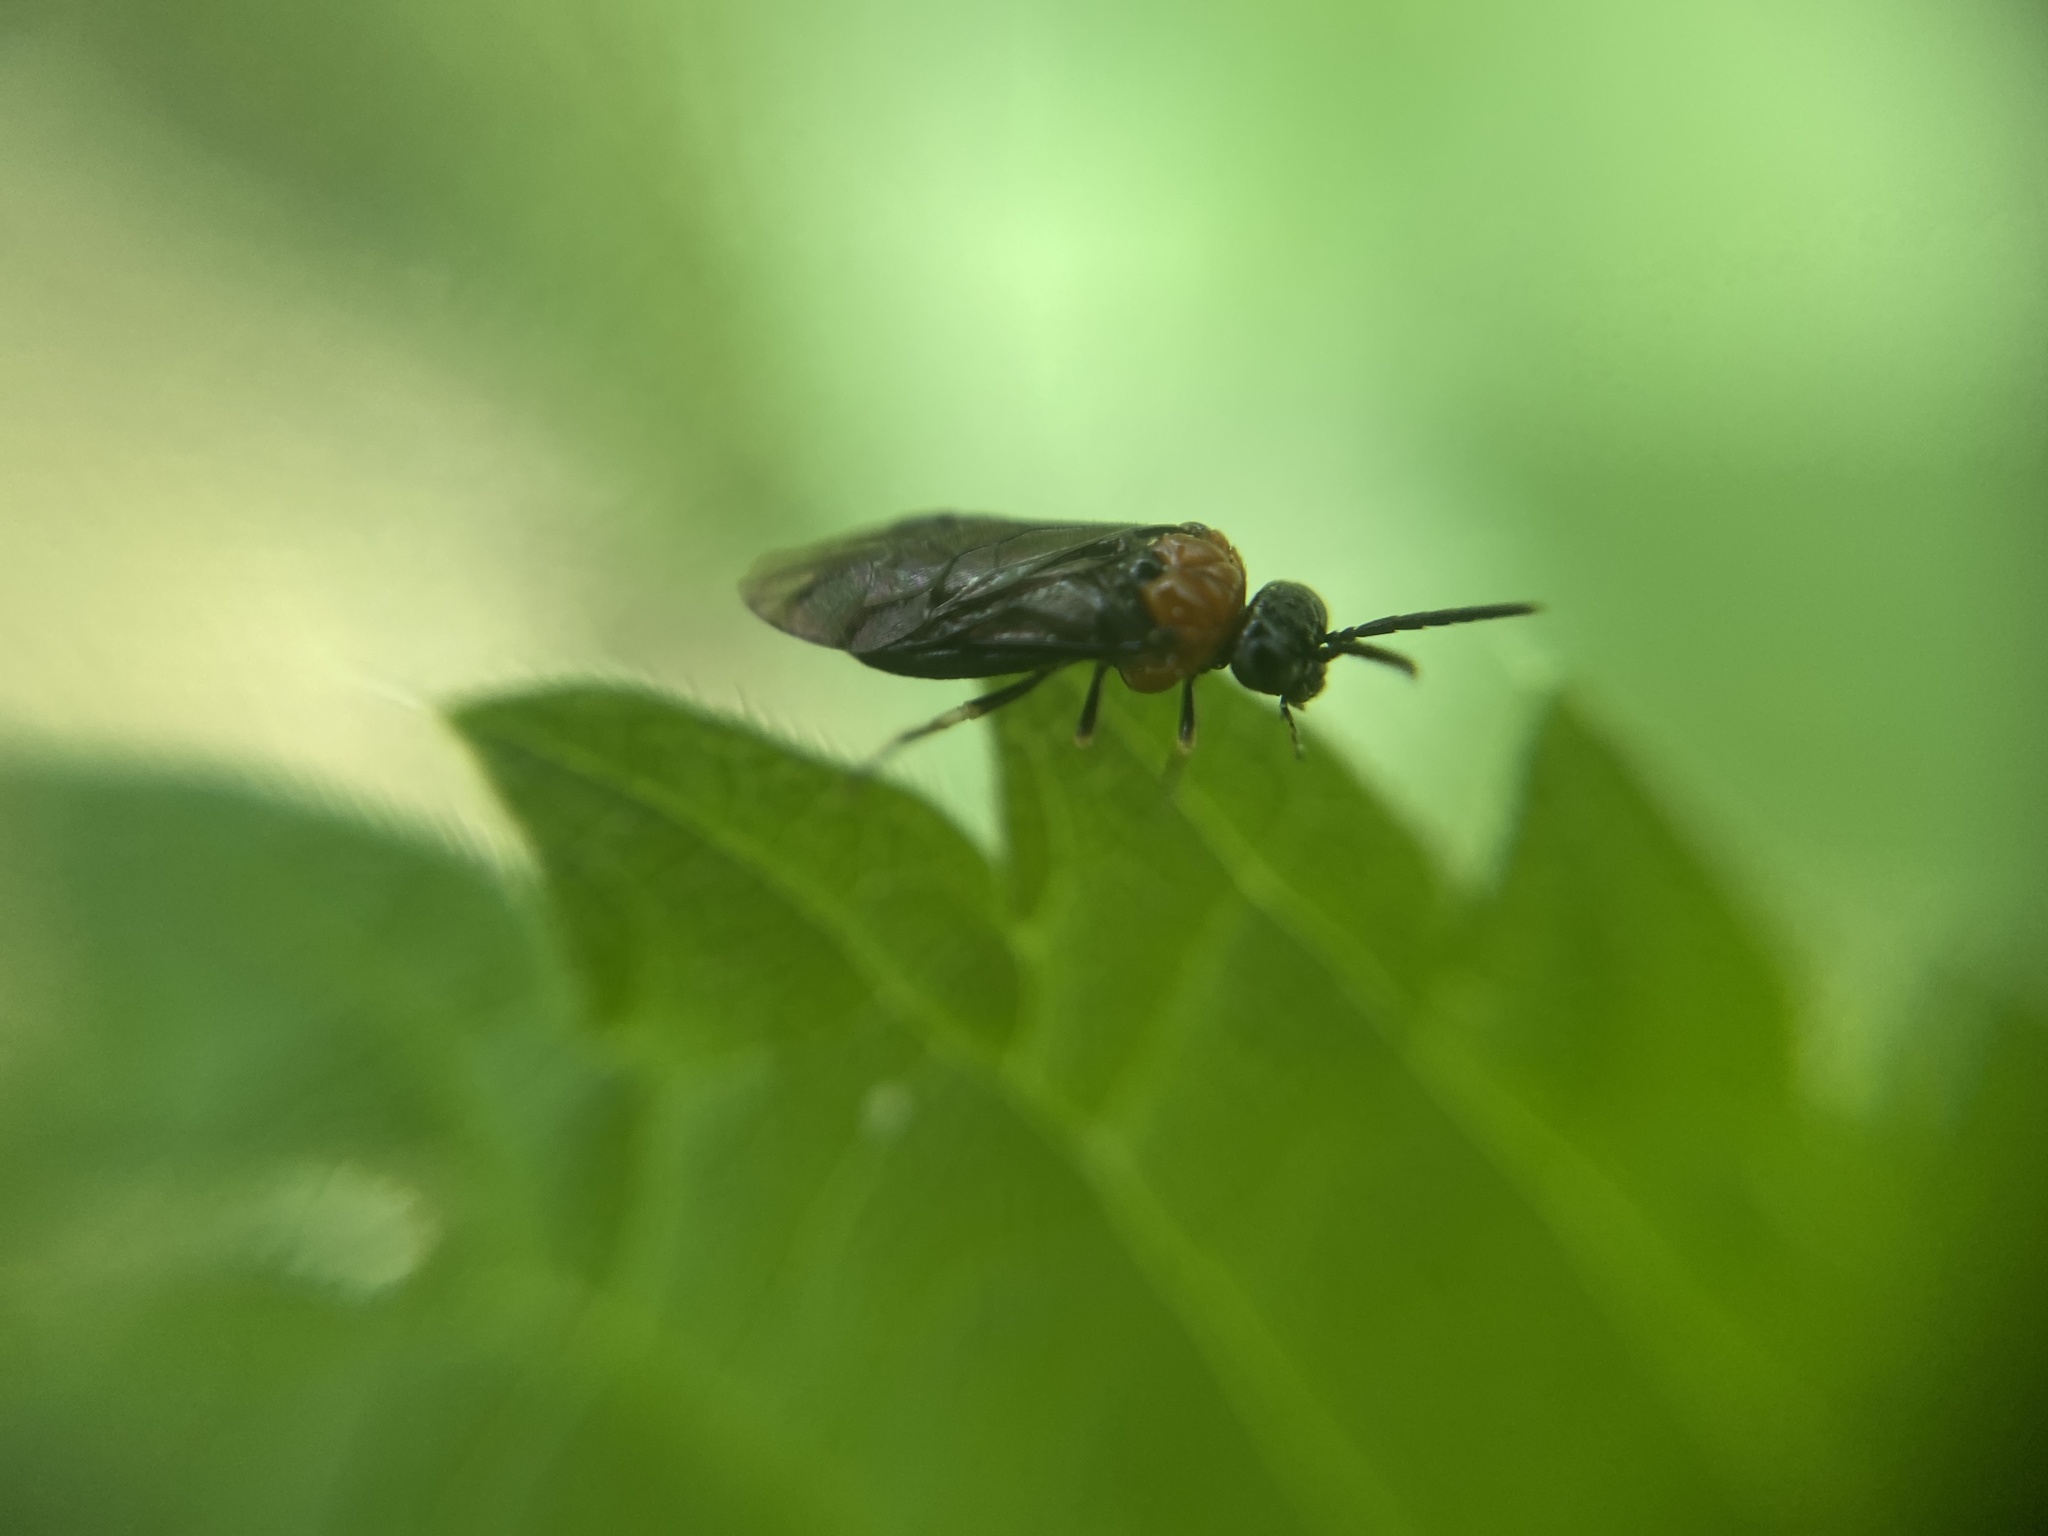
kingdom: Animalia
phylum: Arthropoda
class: Insecta
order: Hymenoptera
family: Tenthredinidae
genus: Eutomostethus
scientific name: Eutomostethus ephippium
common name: Tenthredid wasp
